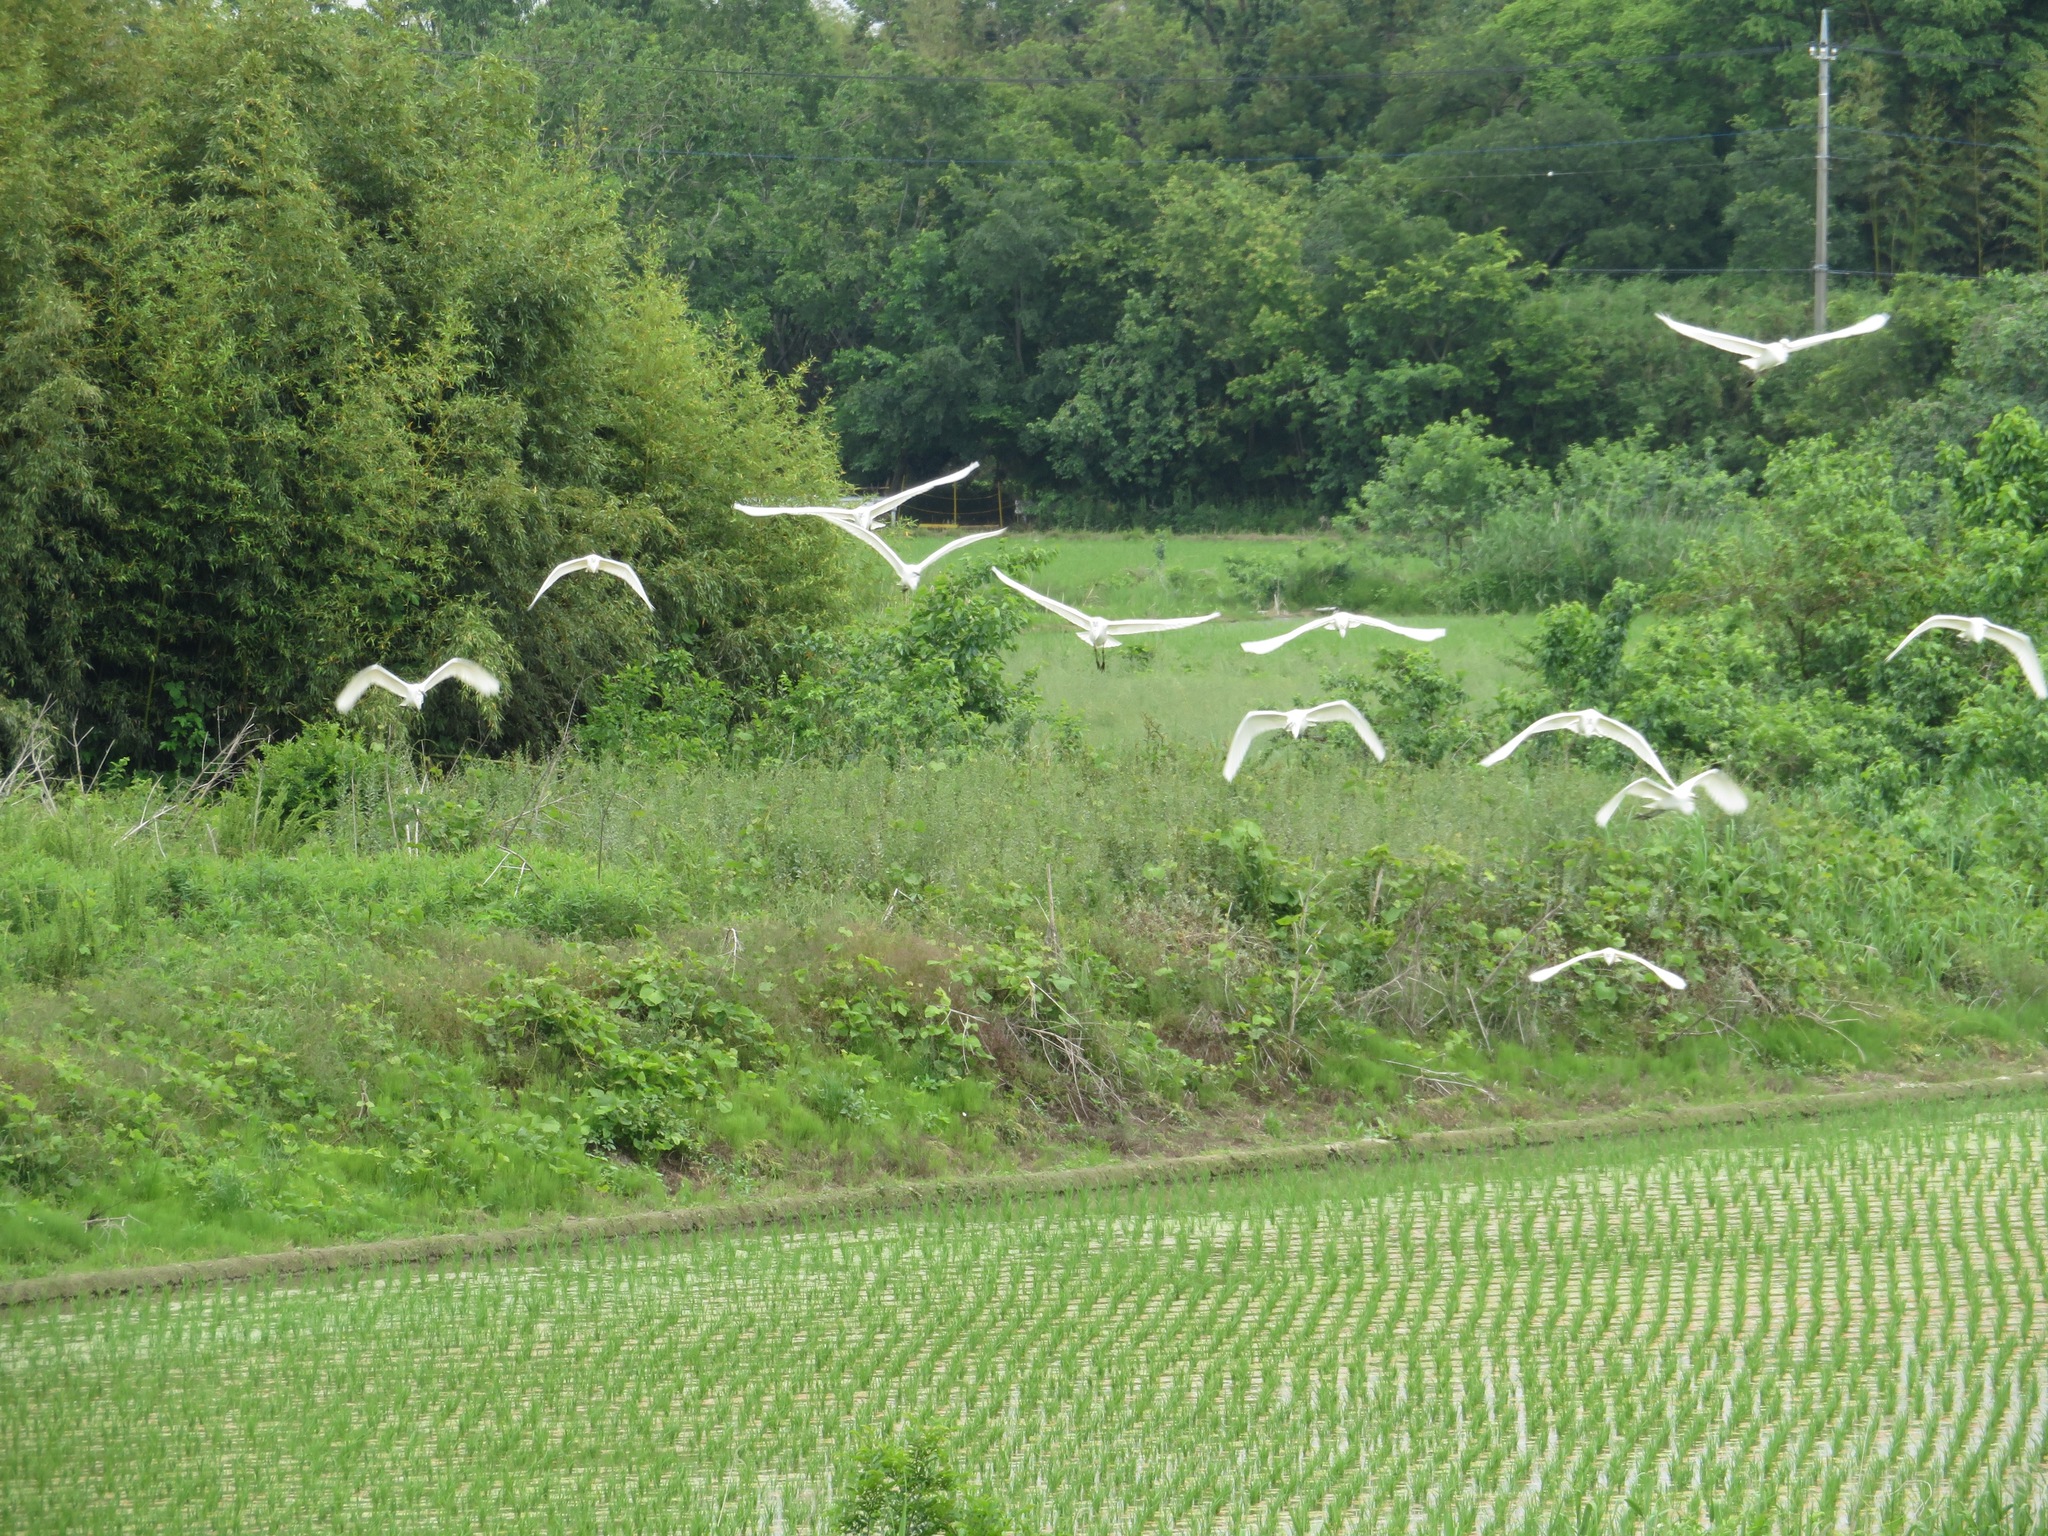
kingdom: Animalia
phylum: Chordata
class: Aves
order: Pelecaniformes
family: Ardeidae
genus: Ardea
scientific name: Ardea alba
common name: Great egret
